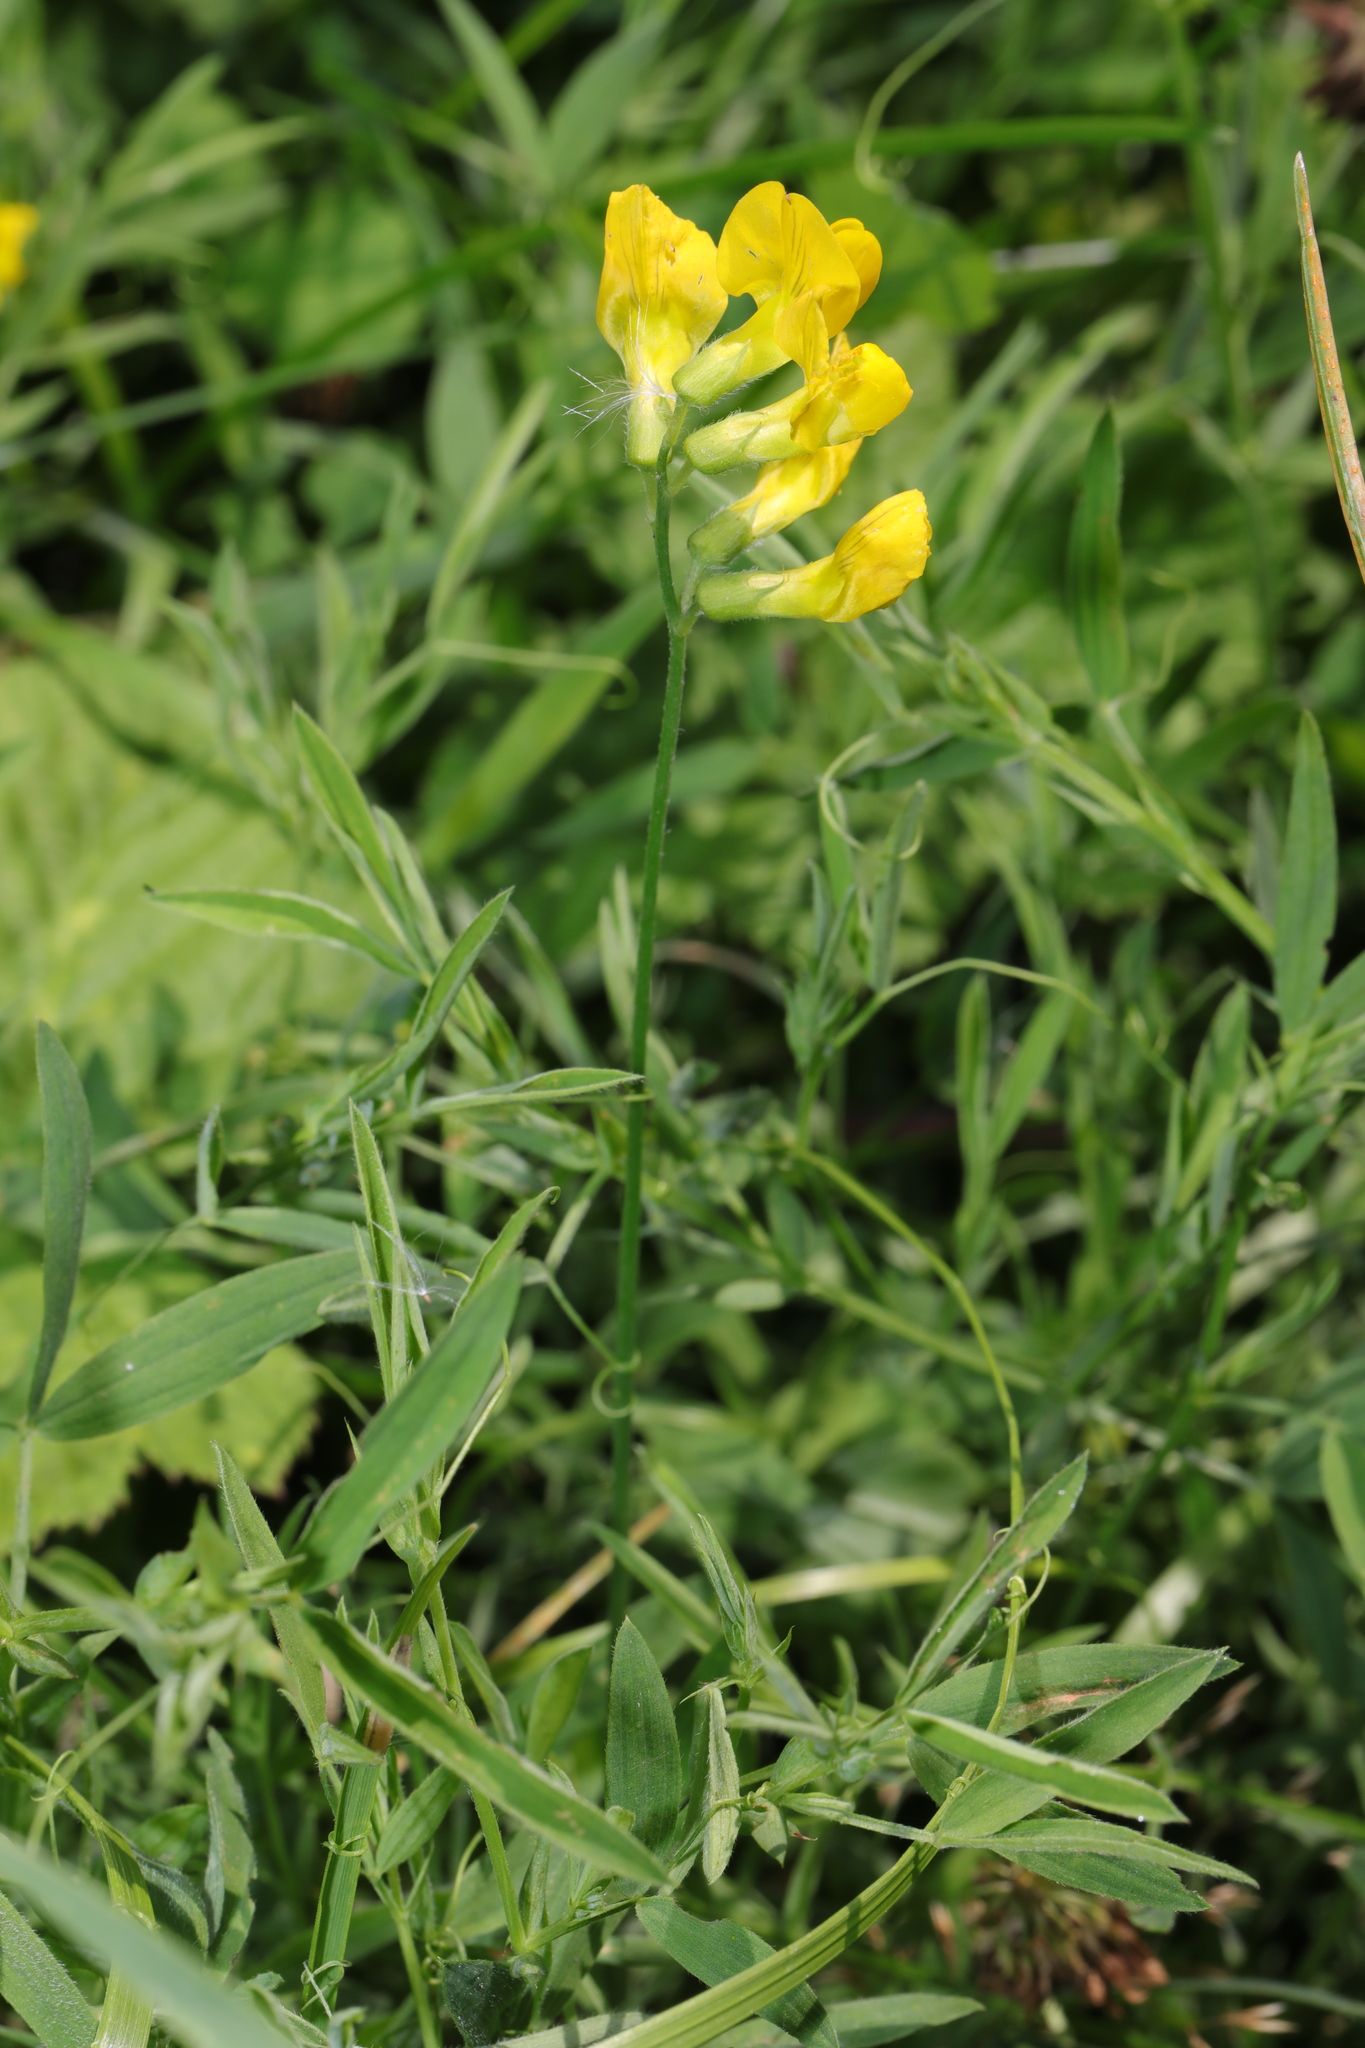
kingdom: Plantae
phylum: Tracheophyta
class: Magnoliopsida
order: Fabales
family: Fabaceae
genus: Lathyrus
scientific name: Lathyrus pratensis
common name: Meadow vetchling
